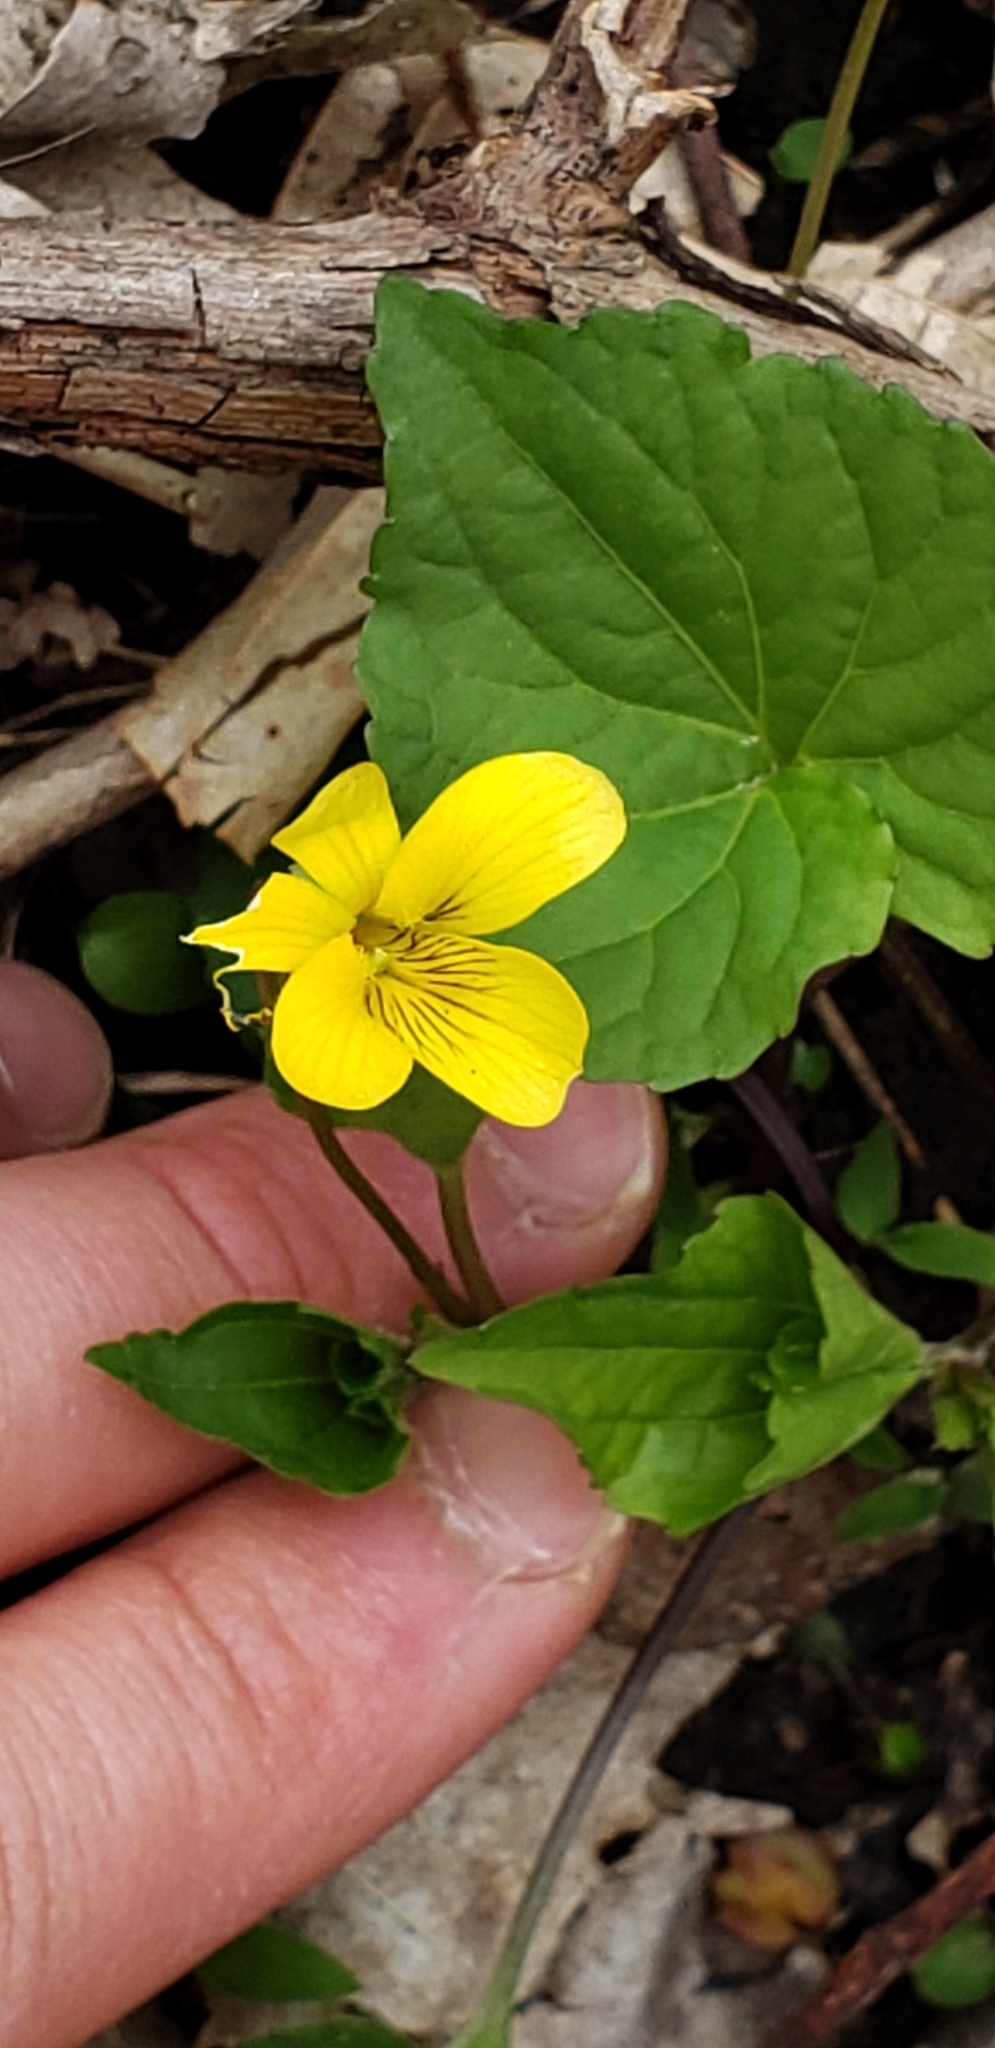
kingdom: Plantae
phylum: Tracheophyta
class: Magnoliopsida
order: Malpighiales
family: Violaceae
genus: Viola
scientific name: Viola eriocarpa
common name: Smooth yellow violet
